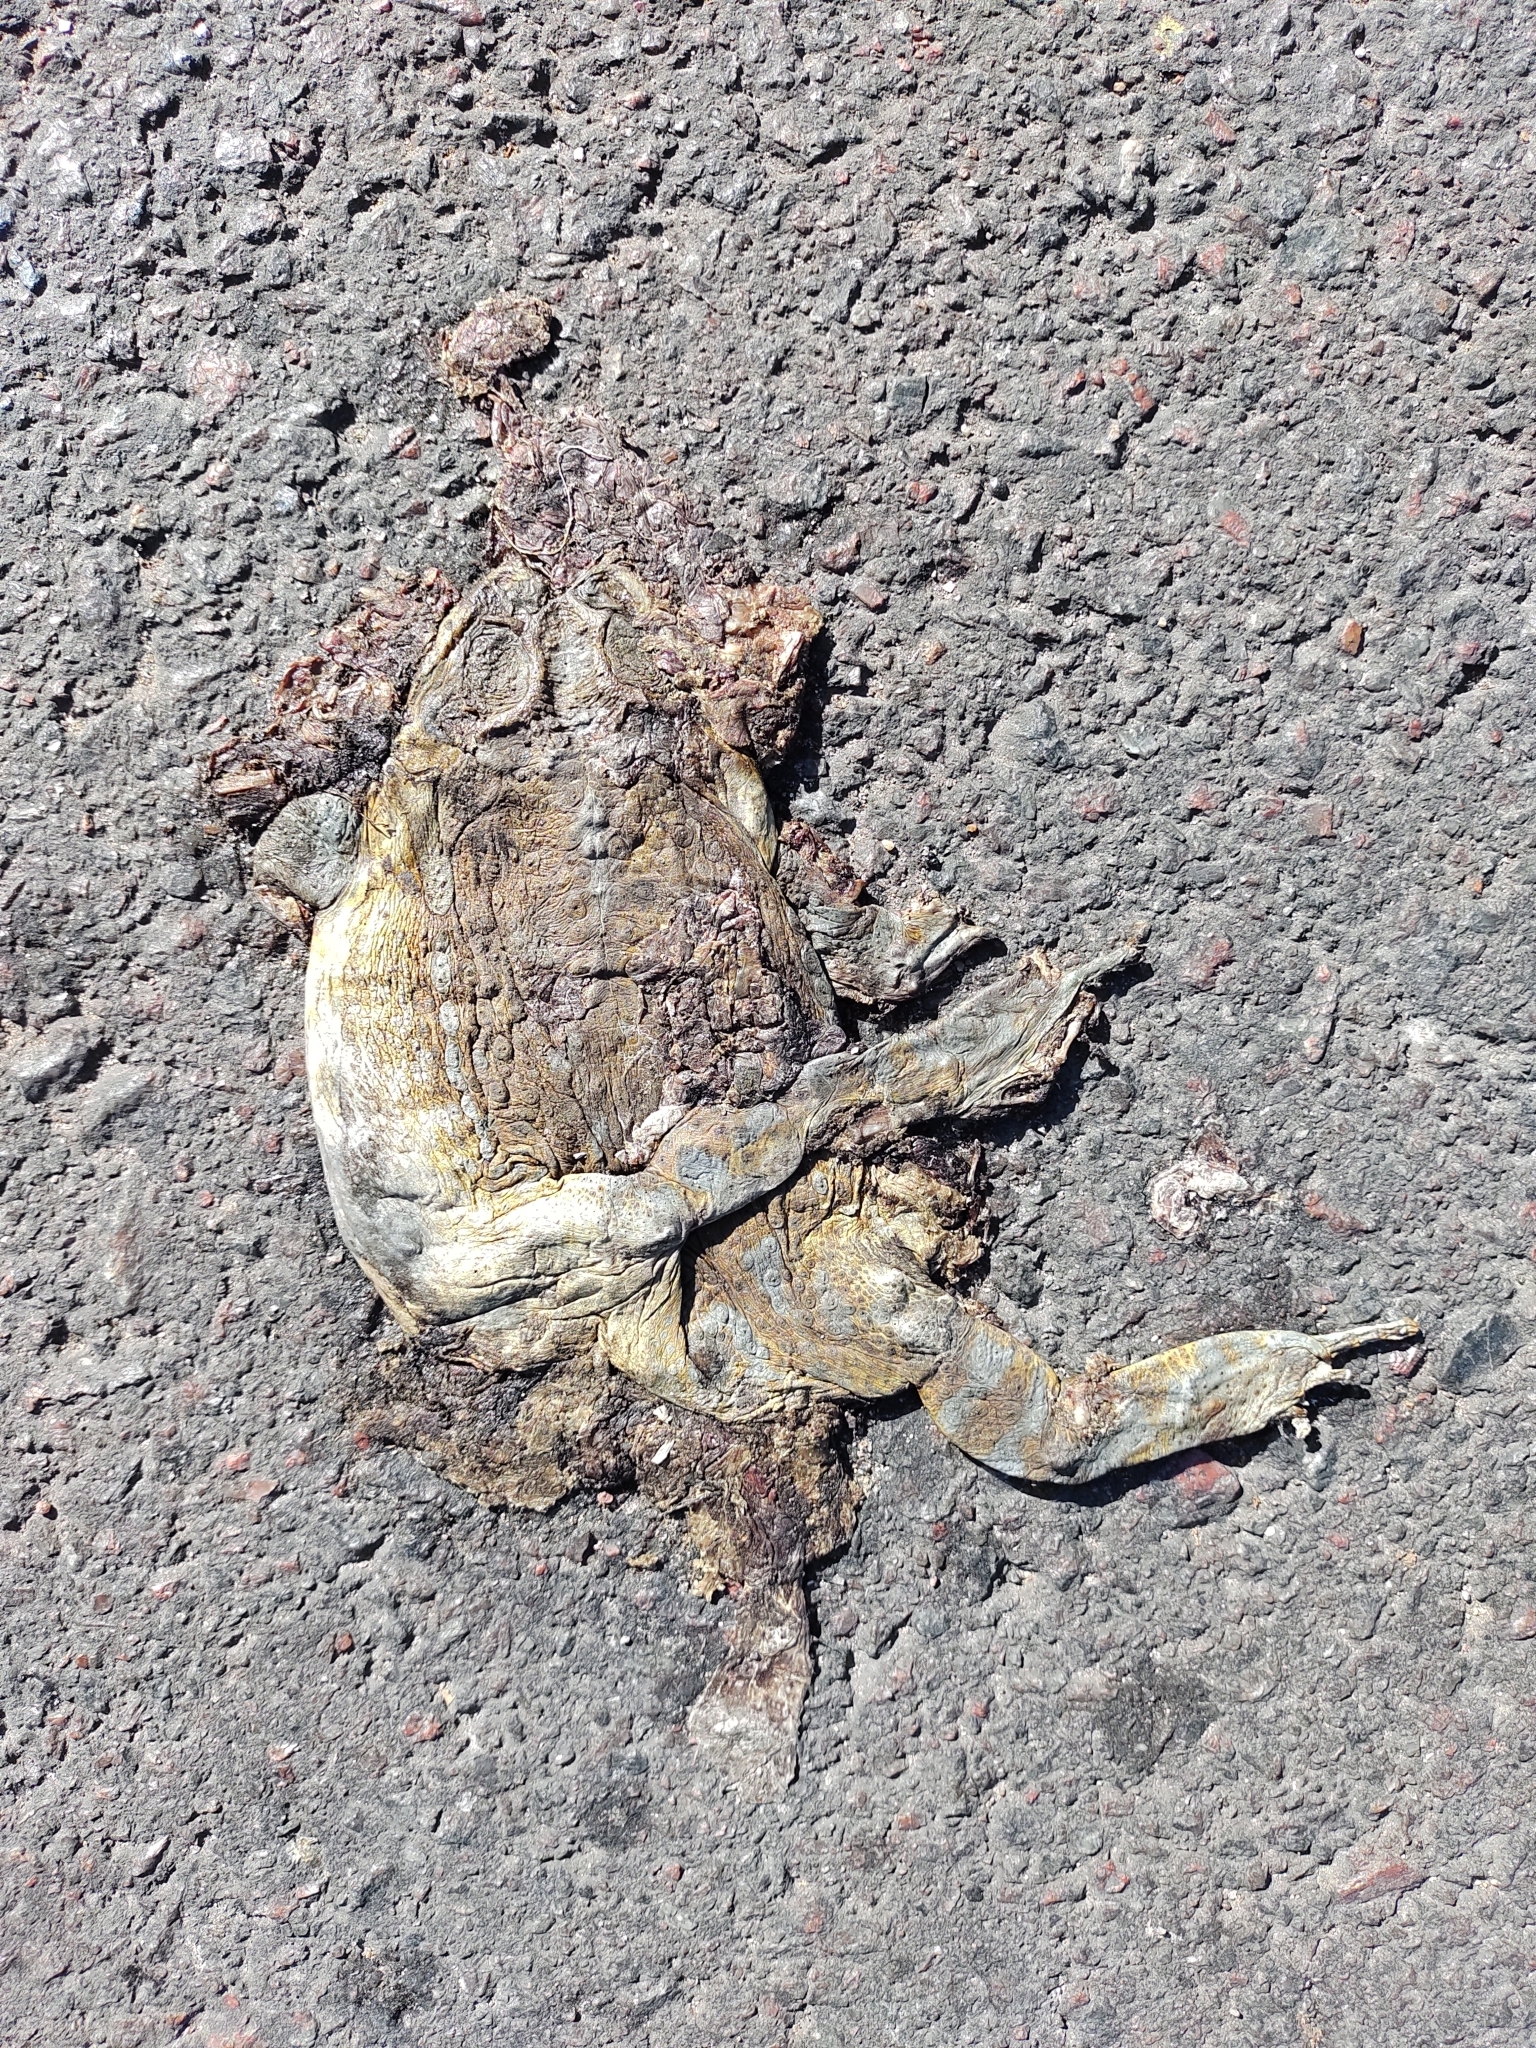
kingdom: Animalia
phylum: Chordata
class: Amphibia
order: Anura
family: Bufonidae
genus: Rhinella
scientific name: Rhinella arenarum
